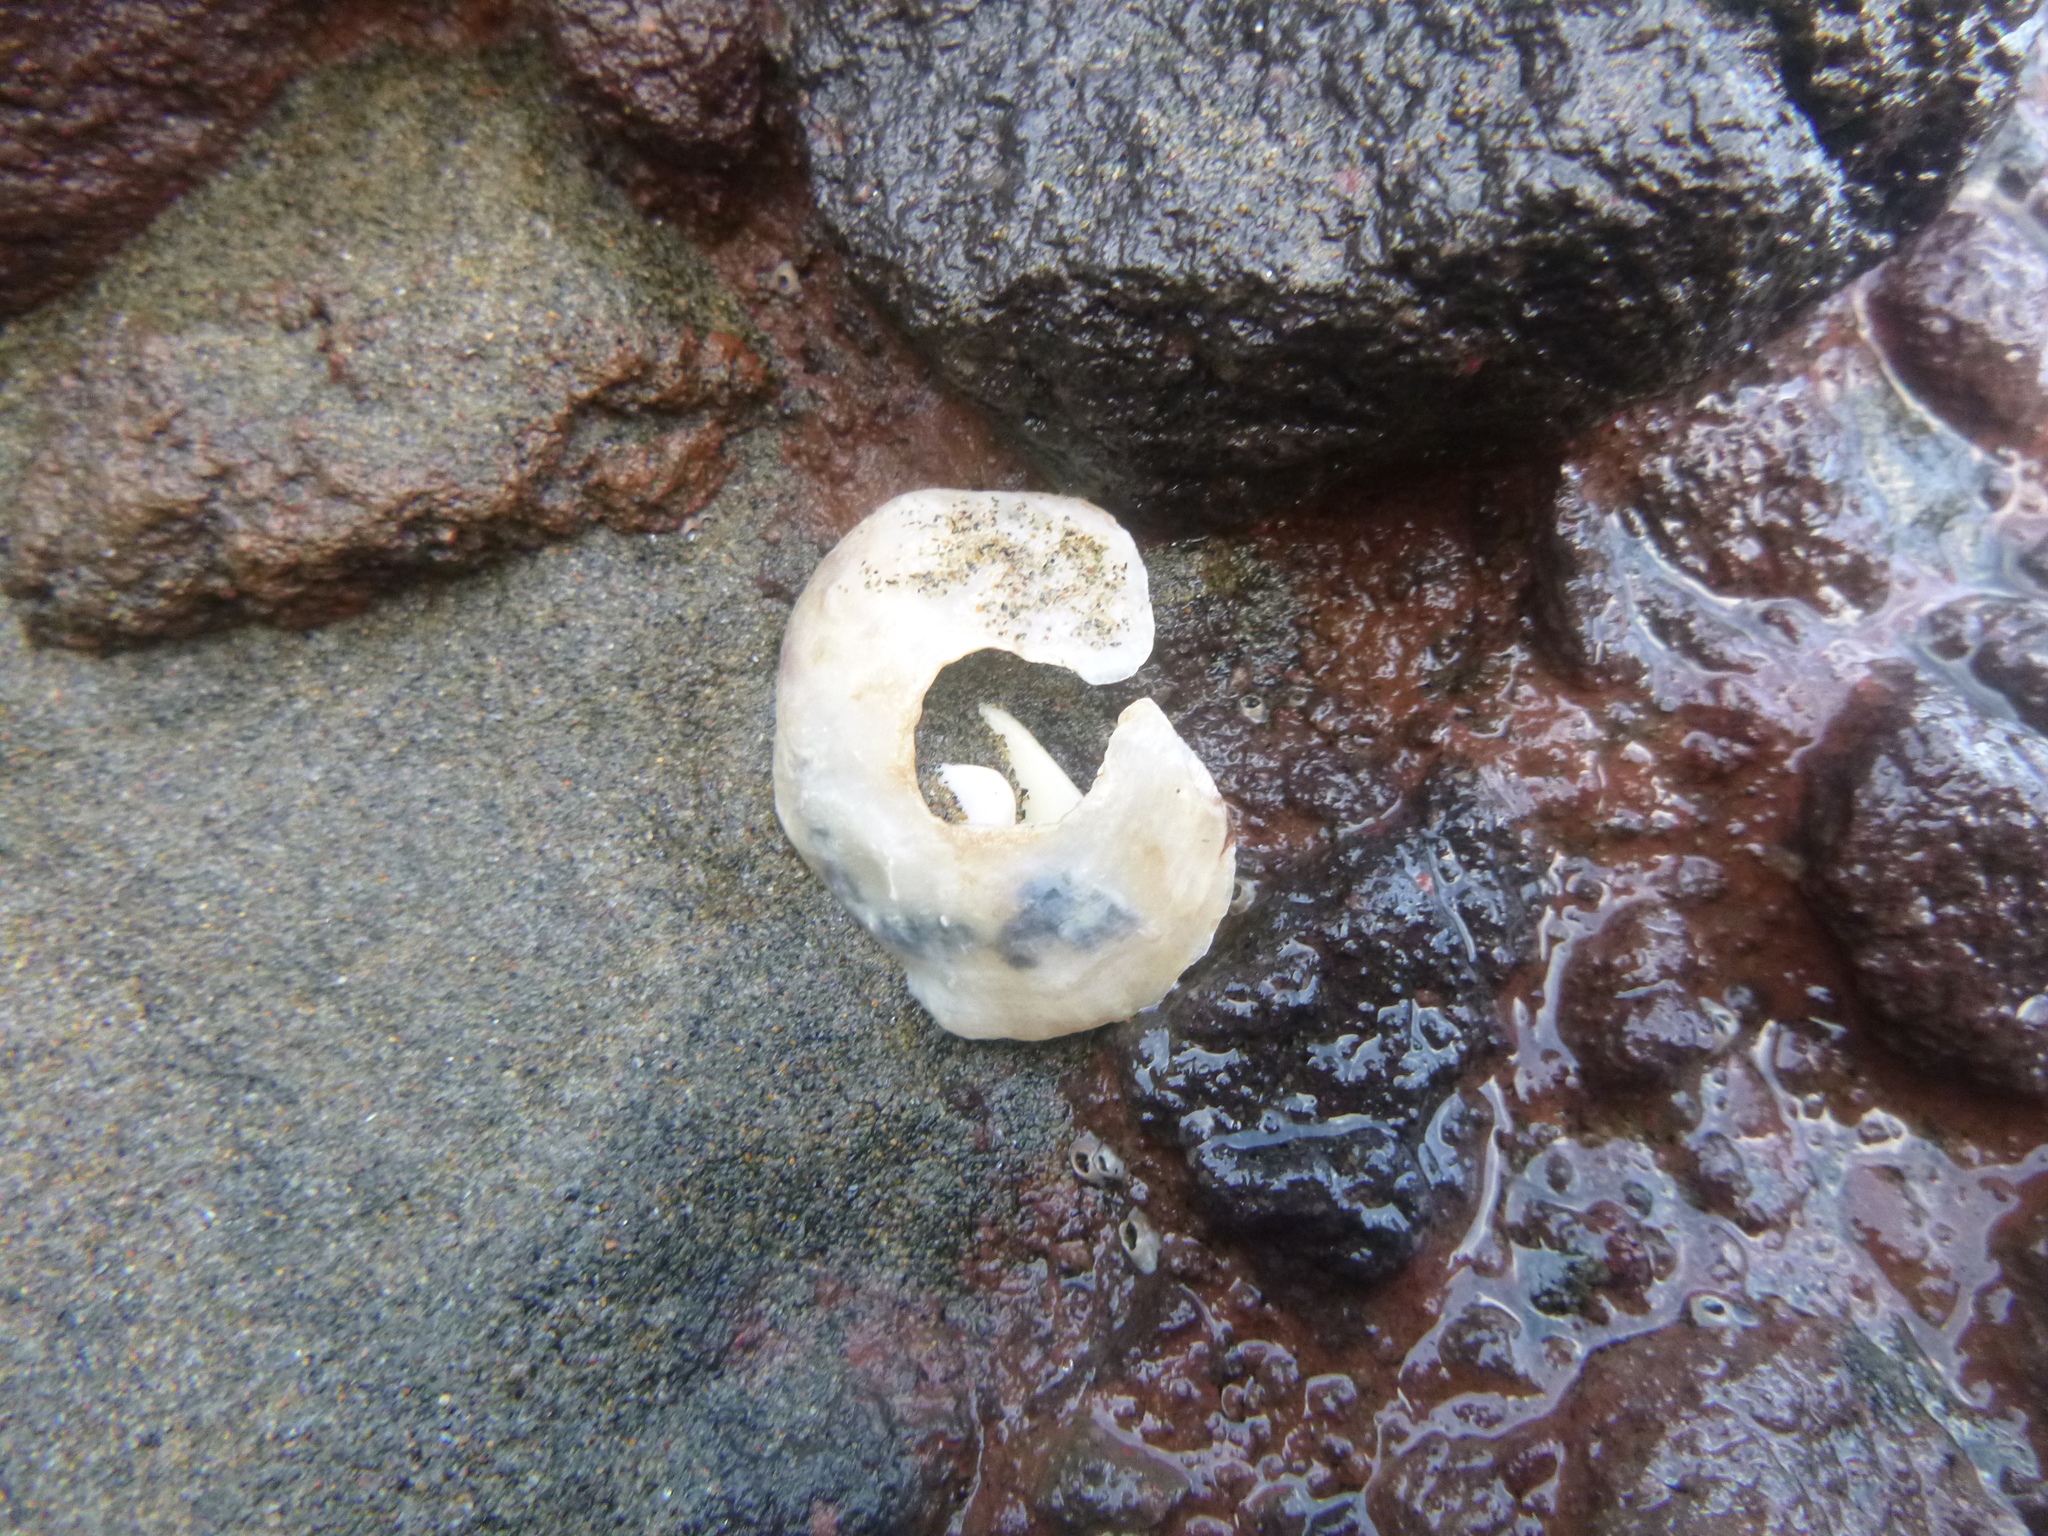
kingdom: Animalia
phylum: Mollusca
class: Bivalvia
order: Ostreida
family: Ostreidae
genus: Ostrea
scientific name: Ostrea chilensis
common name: Chilean oyster
